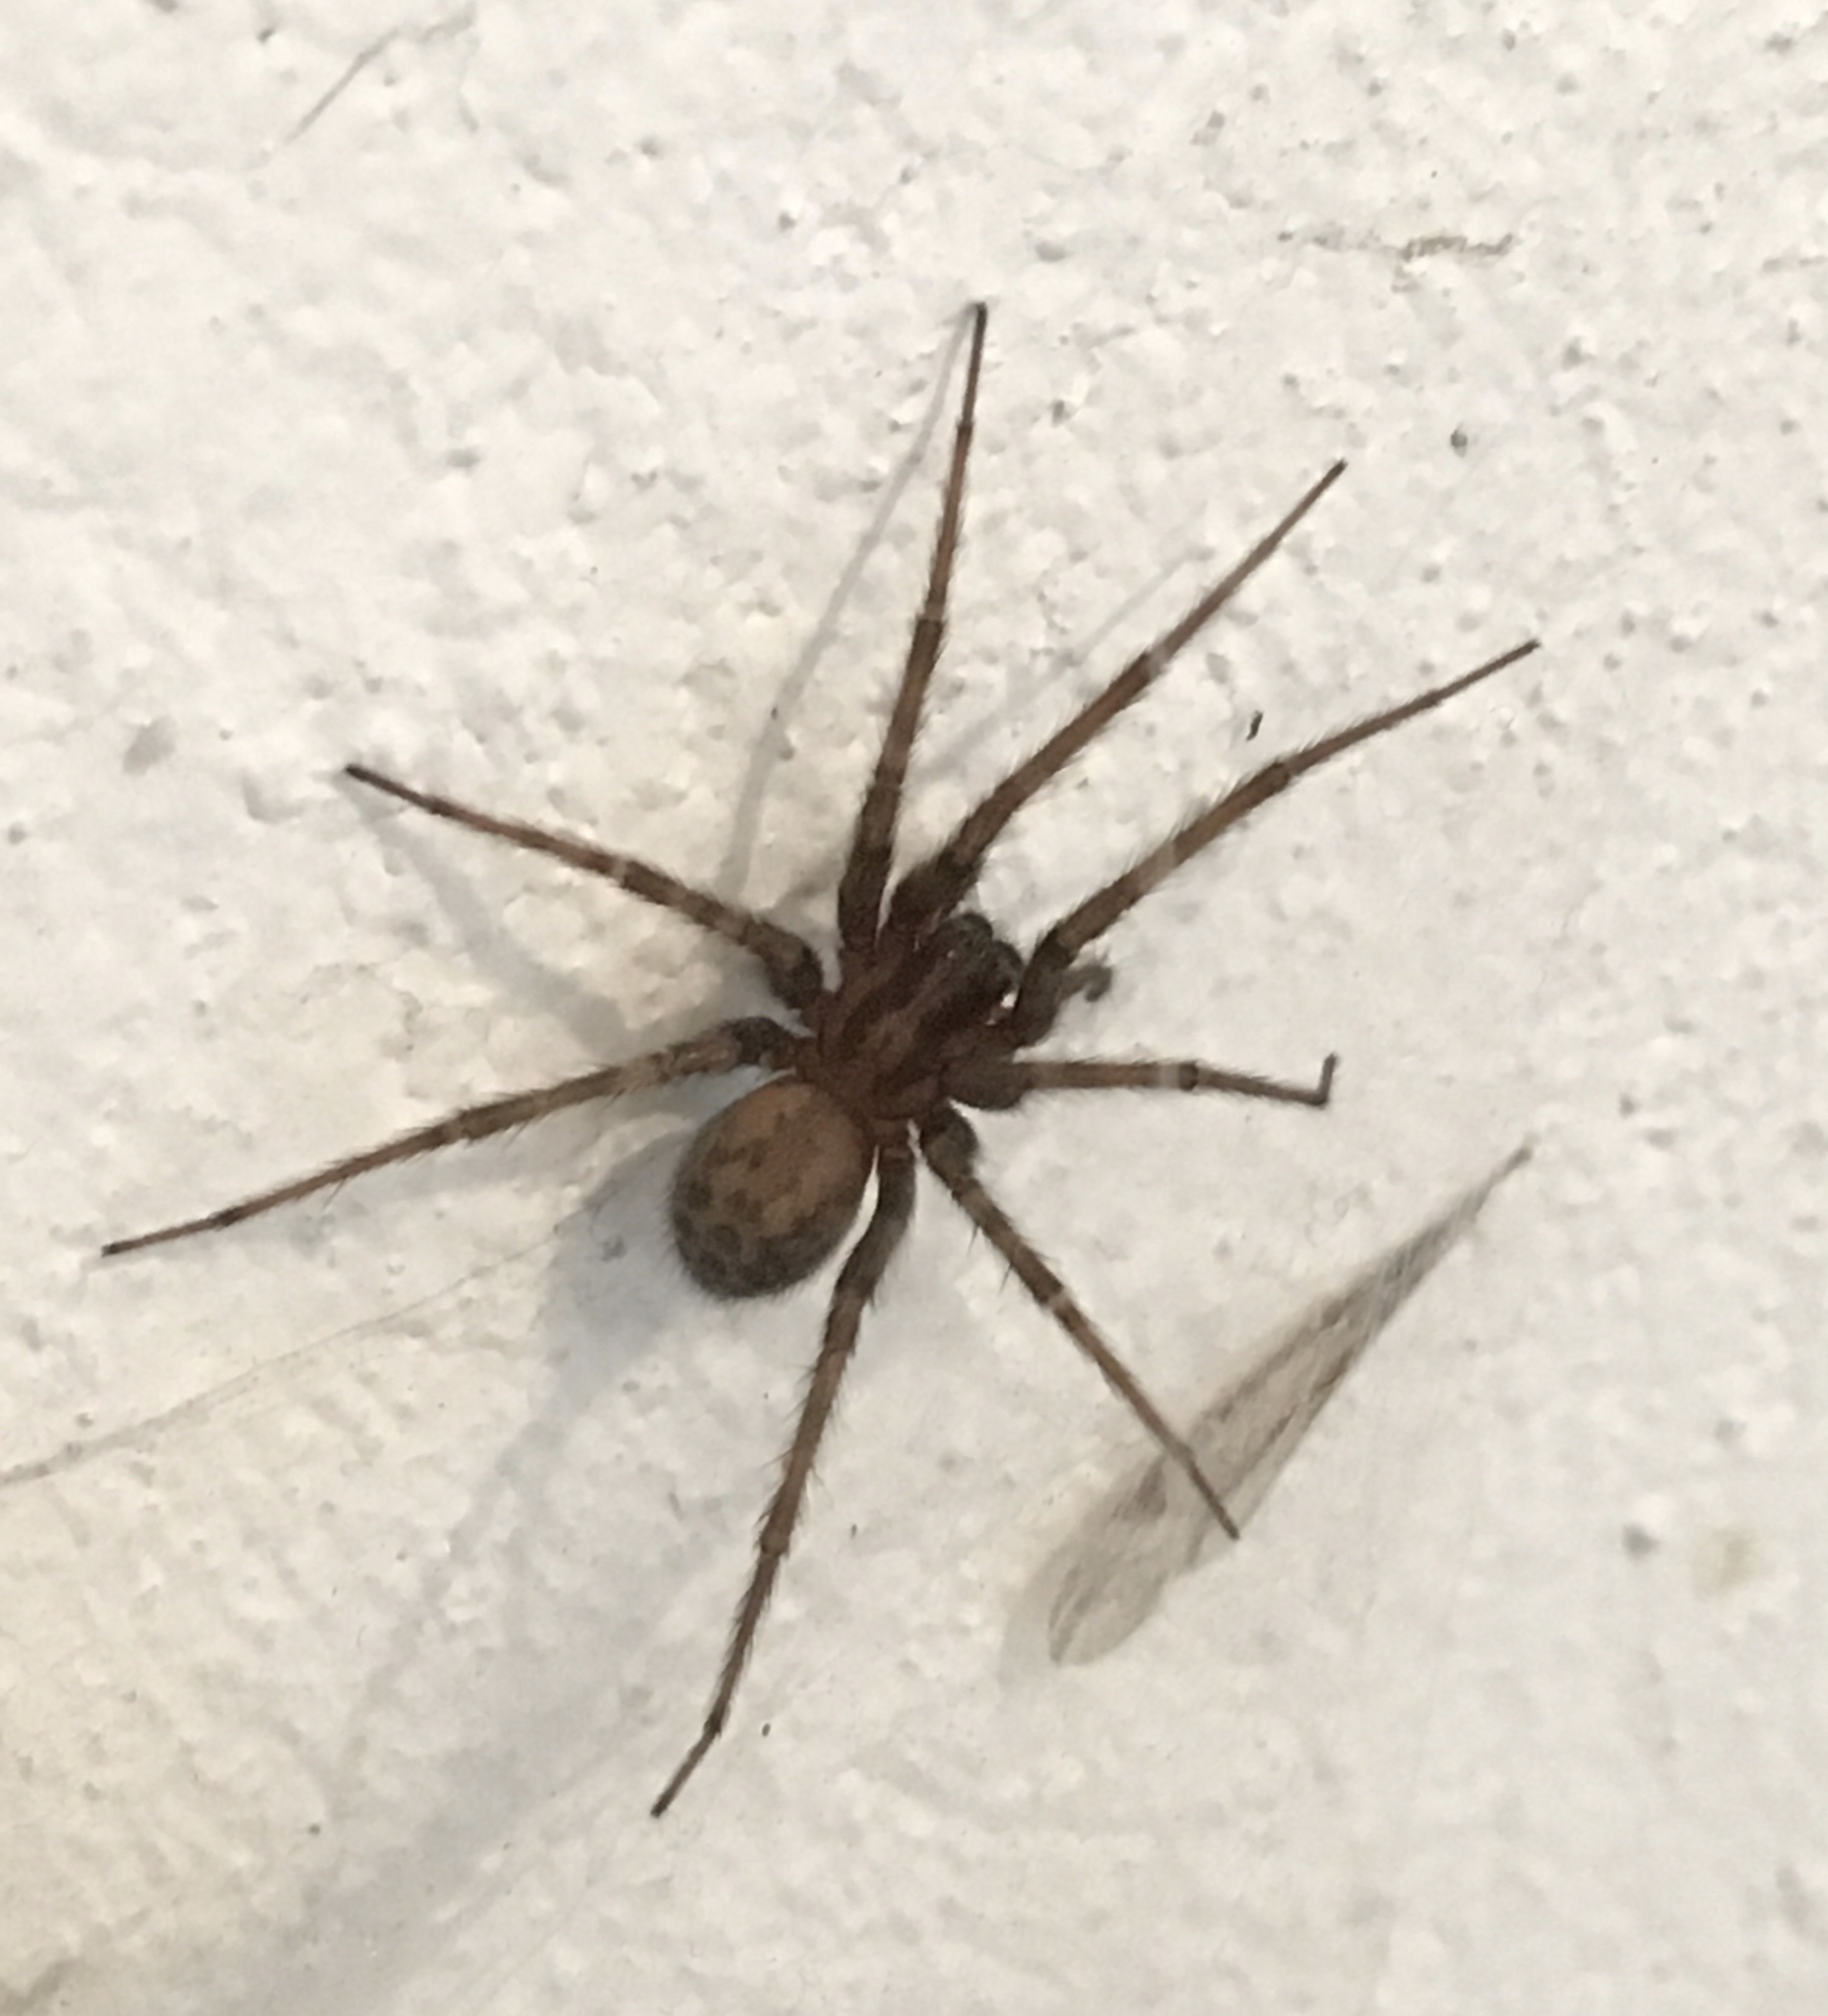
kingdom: Animalia
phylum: Arthropoda
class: Arachnida
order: Araneae
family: Agelenidae
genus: Tegenaria
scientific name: Tegenaria domestica
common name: Barn funnel weaver
